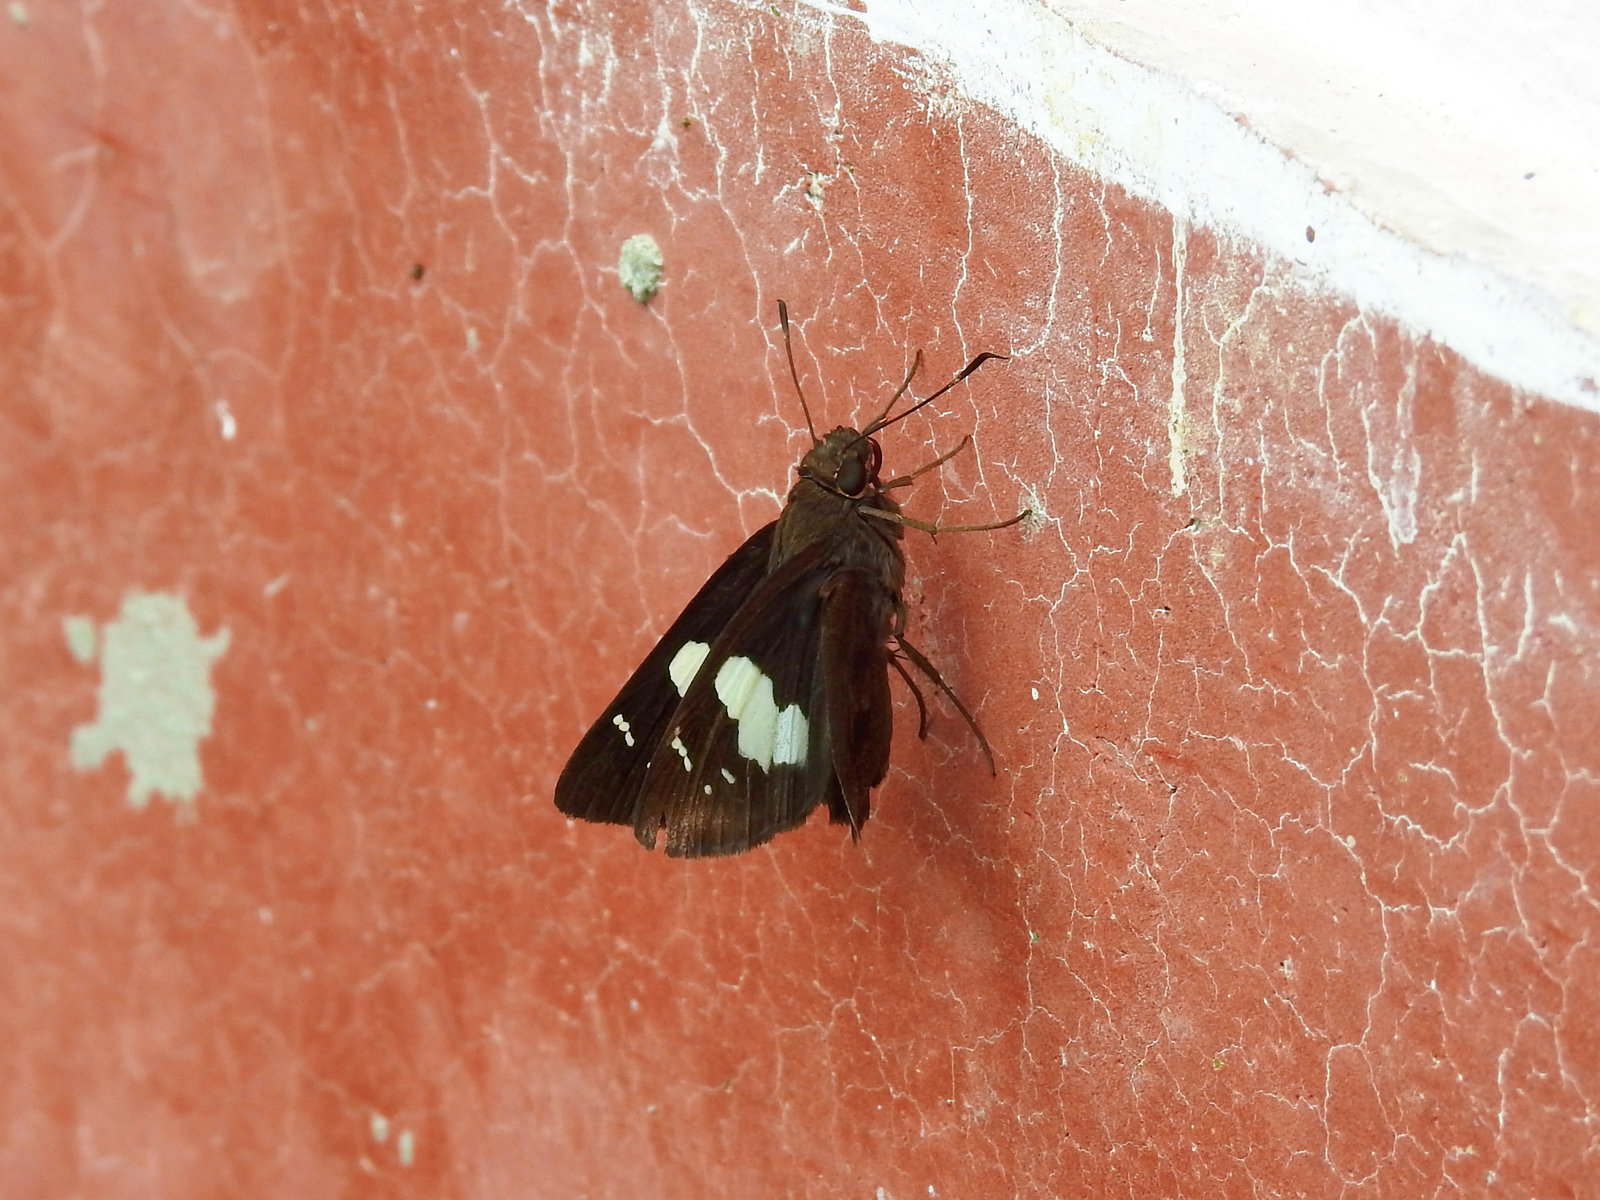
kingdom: Animalia
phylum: Arthropoda
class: Insecta
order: Lepidoptera
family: Hesperiidae
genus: Notocrypta
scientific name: Notocrypta curvifascia
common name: Restricted demon
